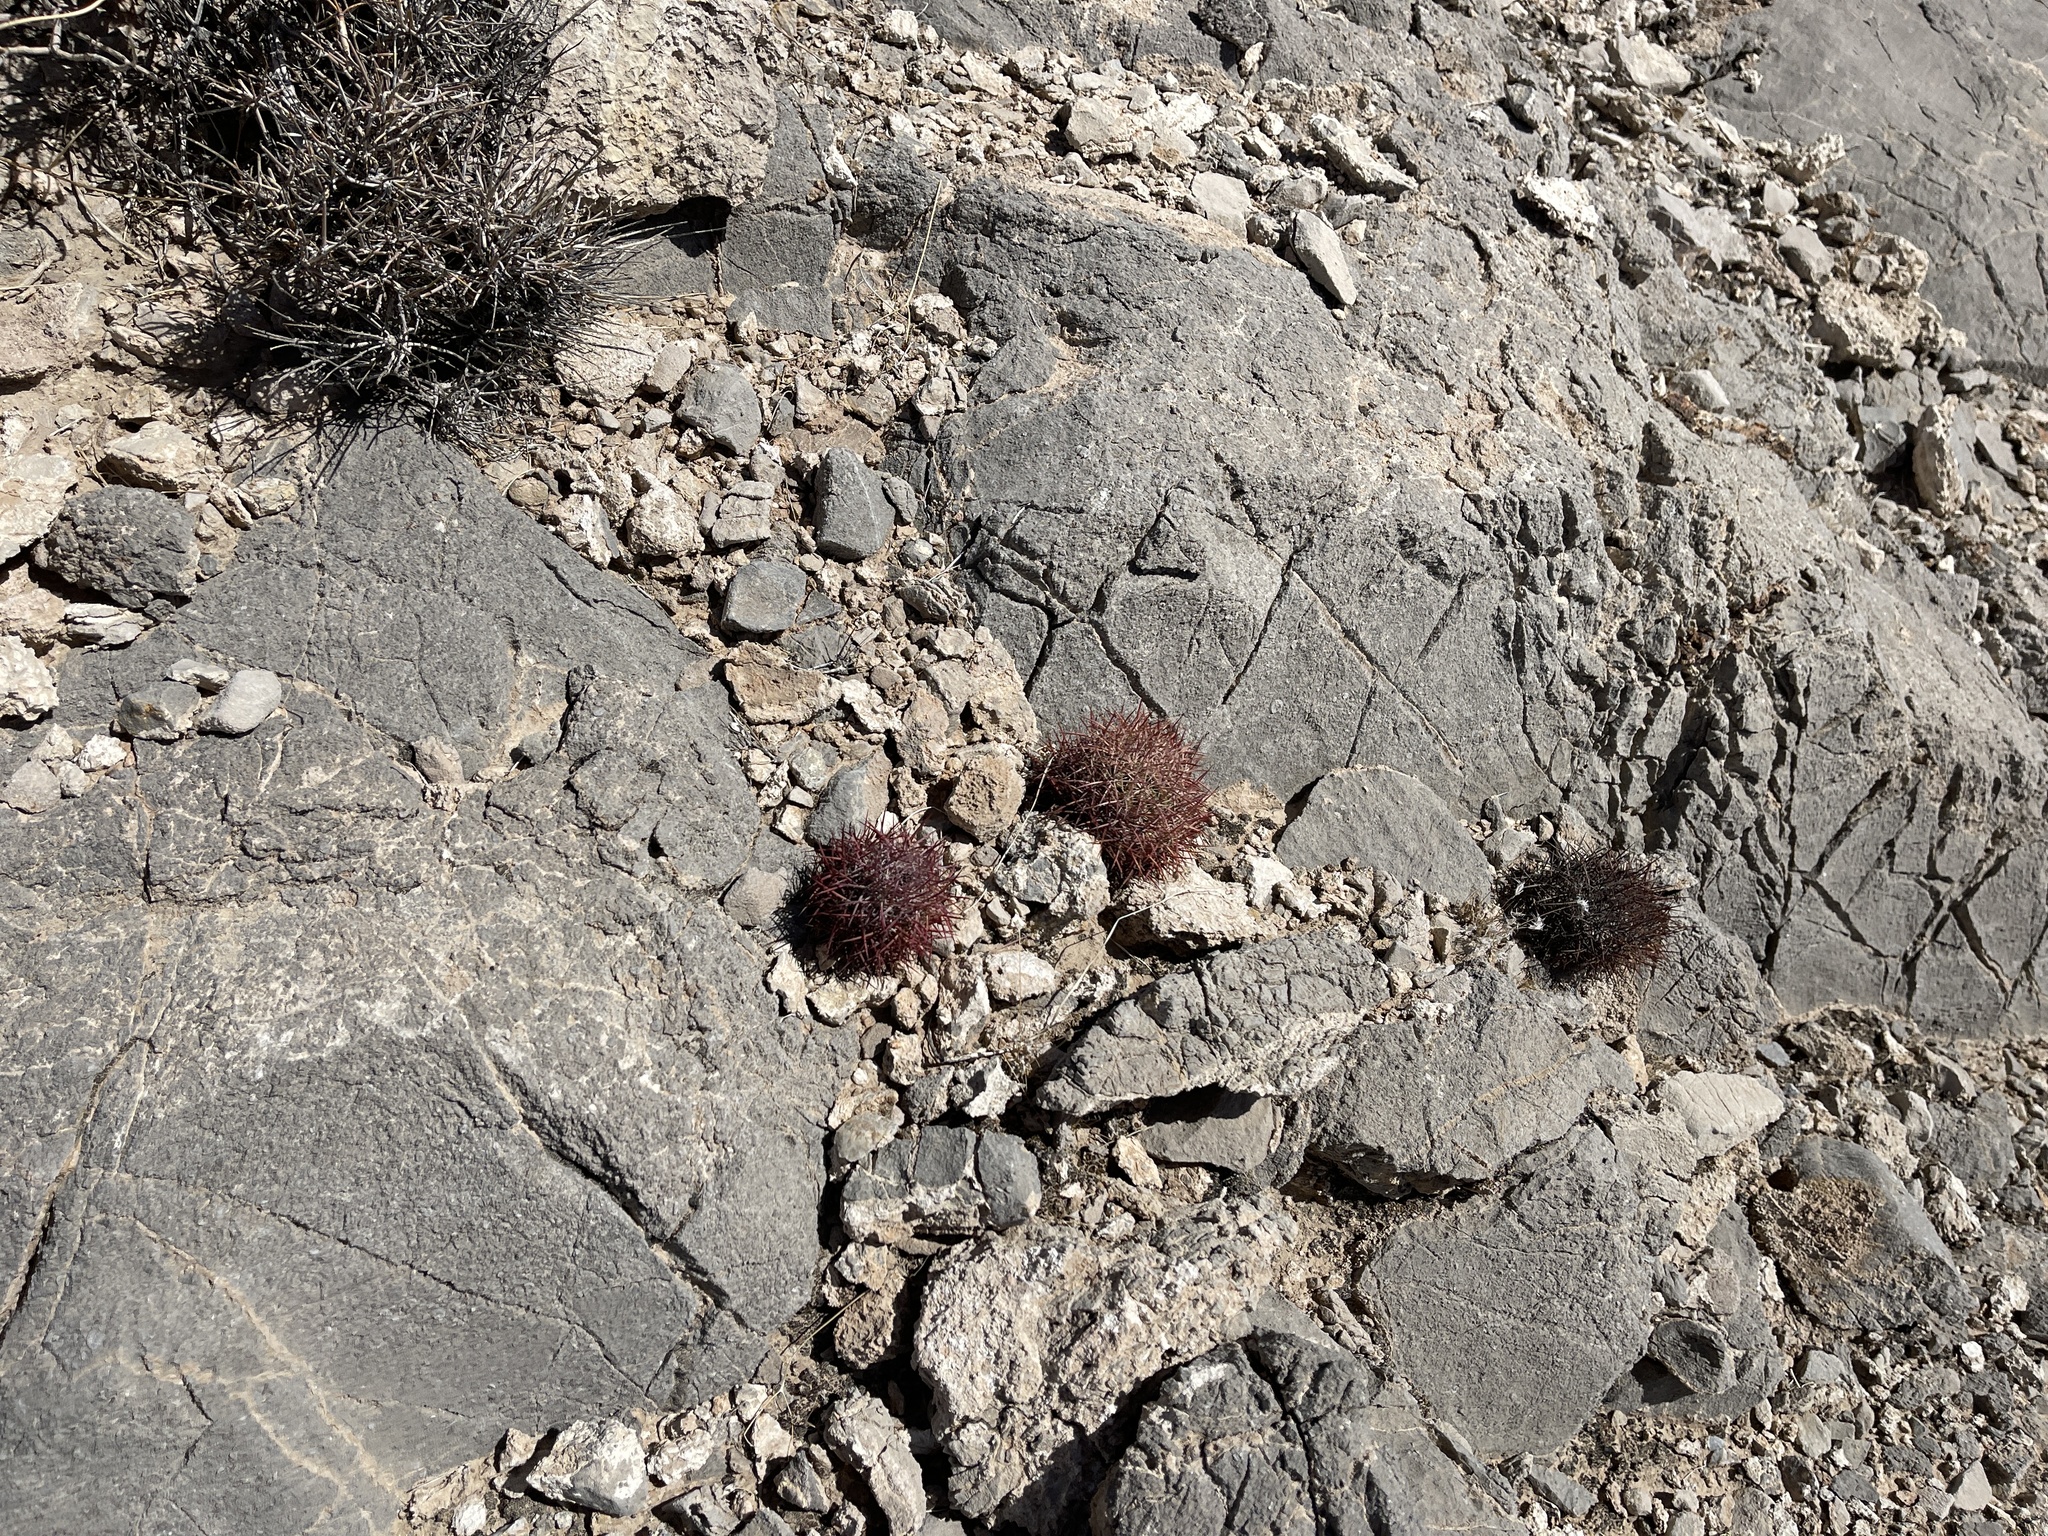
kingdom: Plantae
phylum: Tracheophyta
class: Magnoliopsida
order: Caryophyllales
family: Cactaceae
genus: Sclerocactus
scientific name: Sclerocactus johnsonii
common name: Eight-spine fishhook cactus
